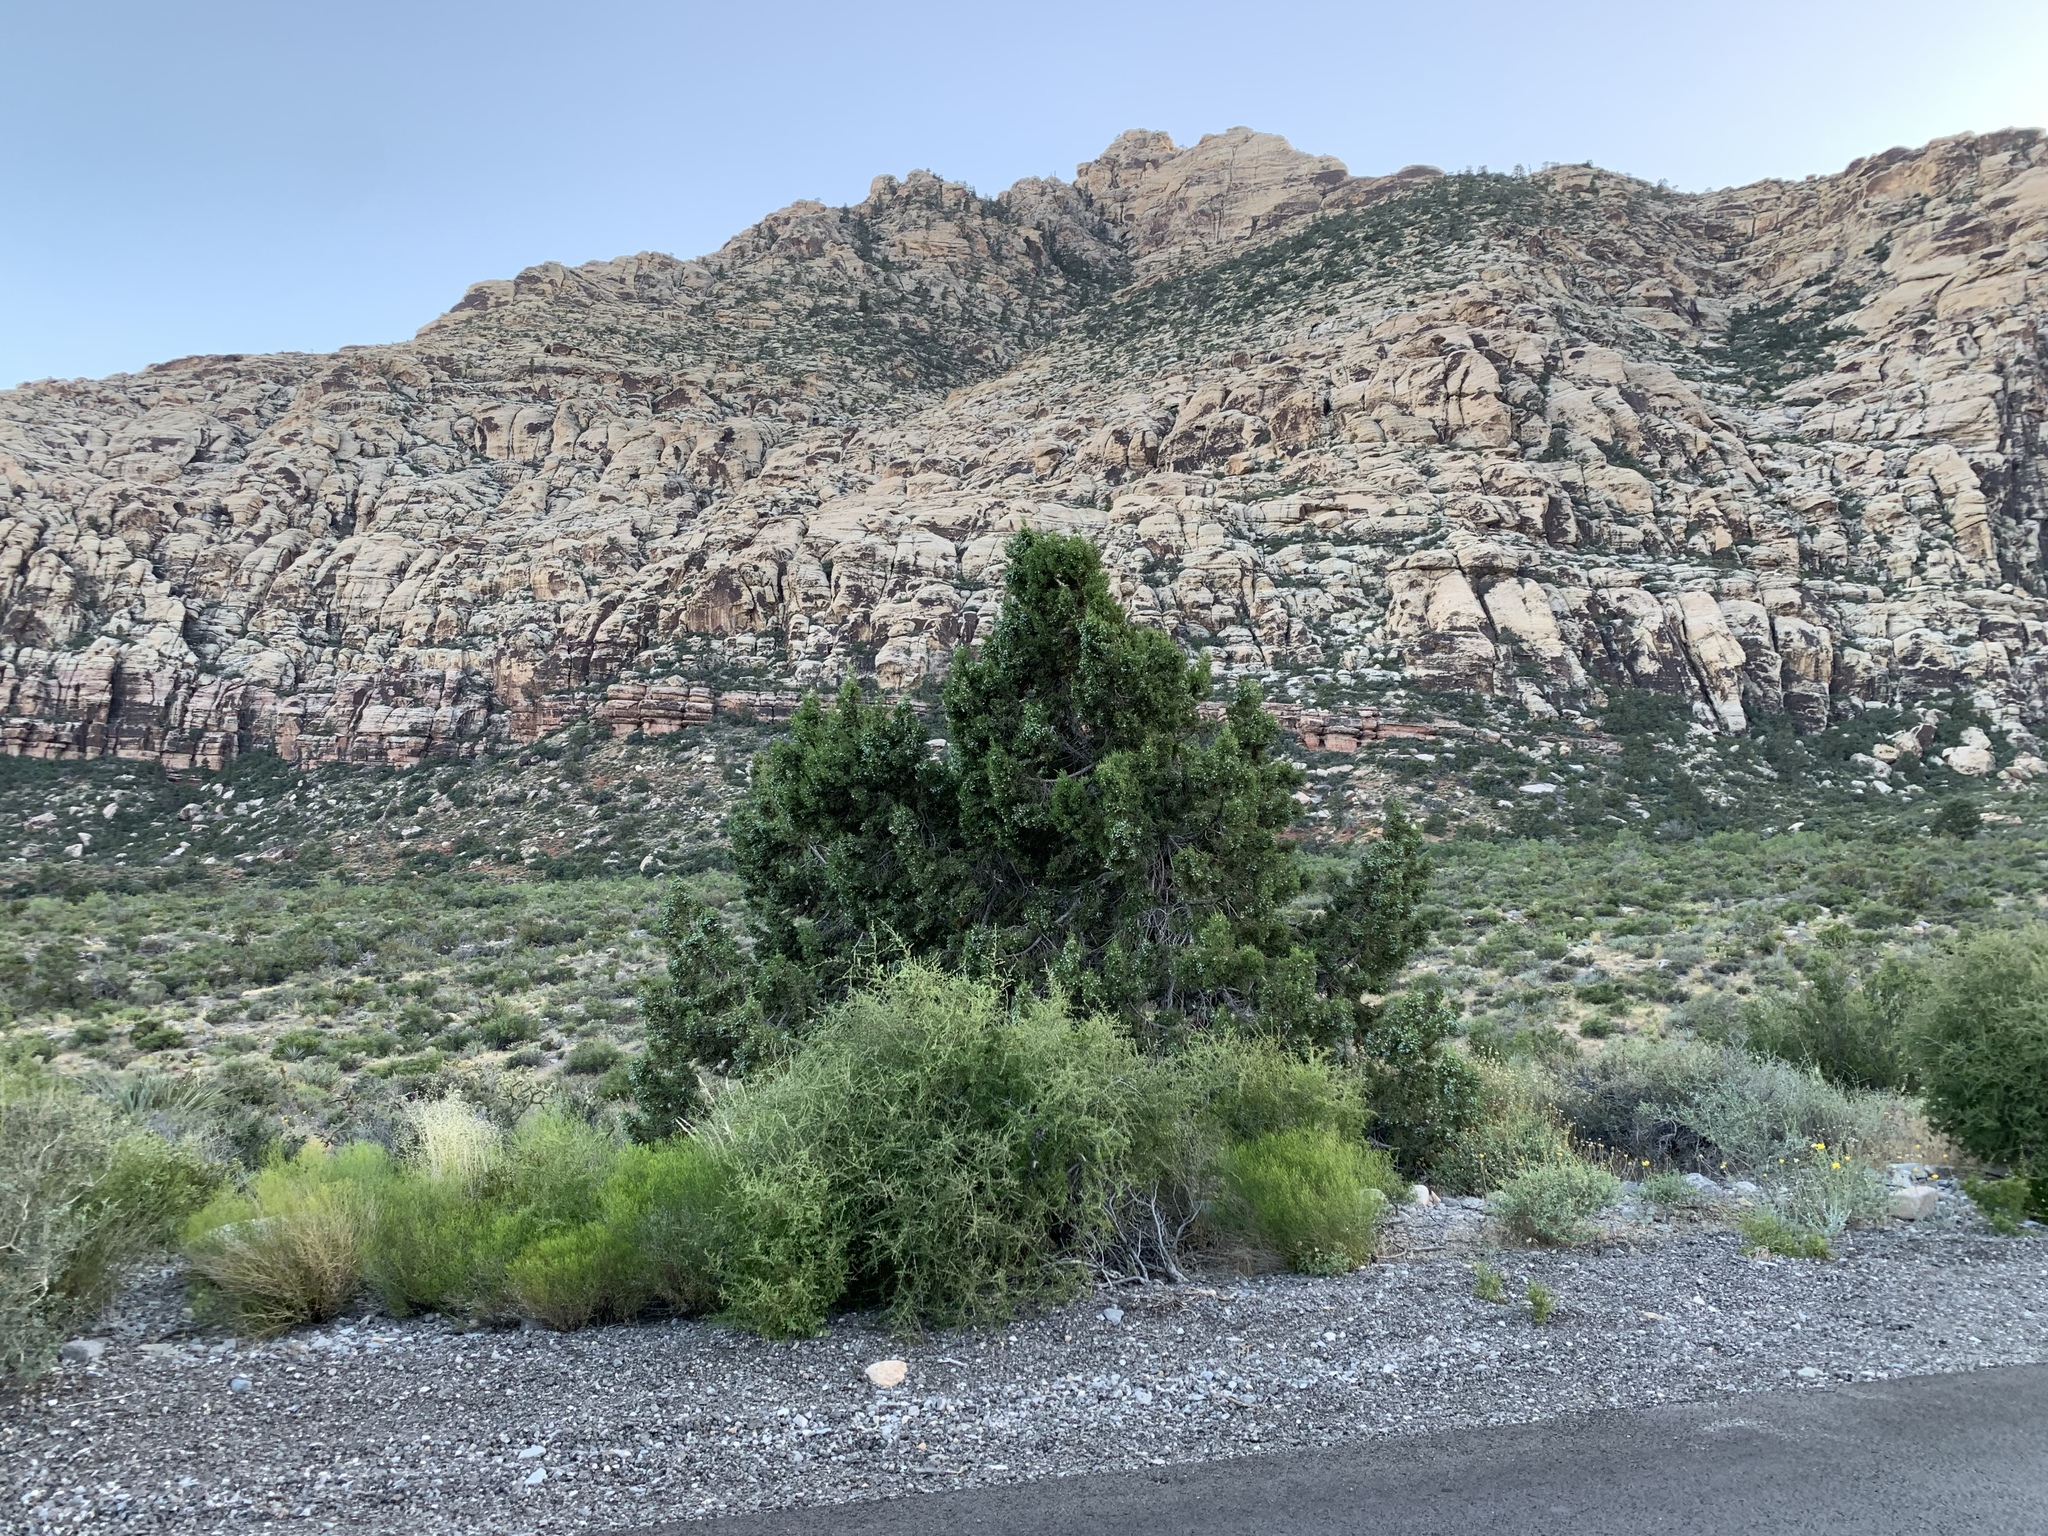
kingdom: Plantae
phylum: Tracheophyta
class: Pinopsida
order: Pinales
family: Cupressaceae
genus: Juniperus
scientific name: Juniperus osteosperma
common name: Utah juniper
